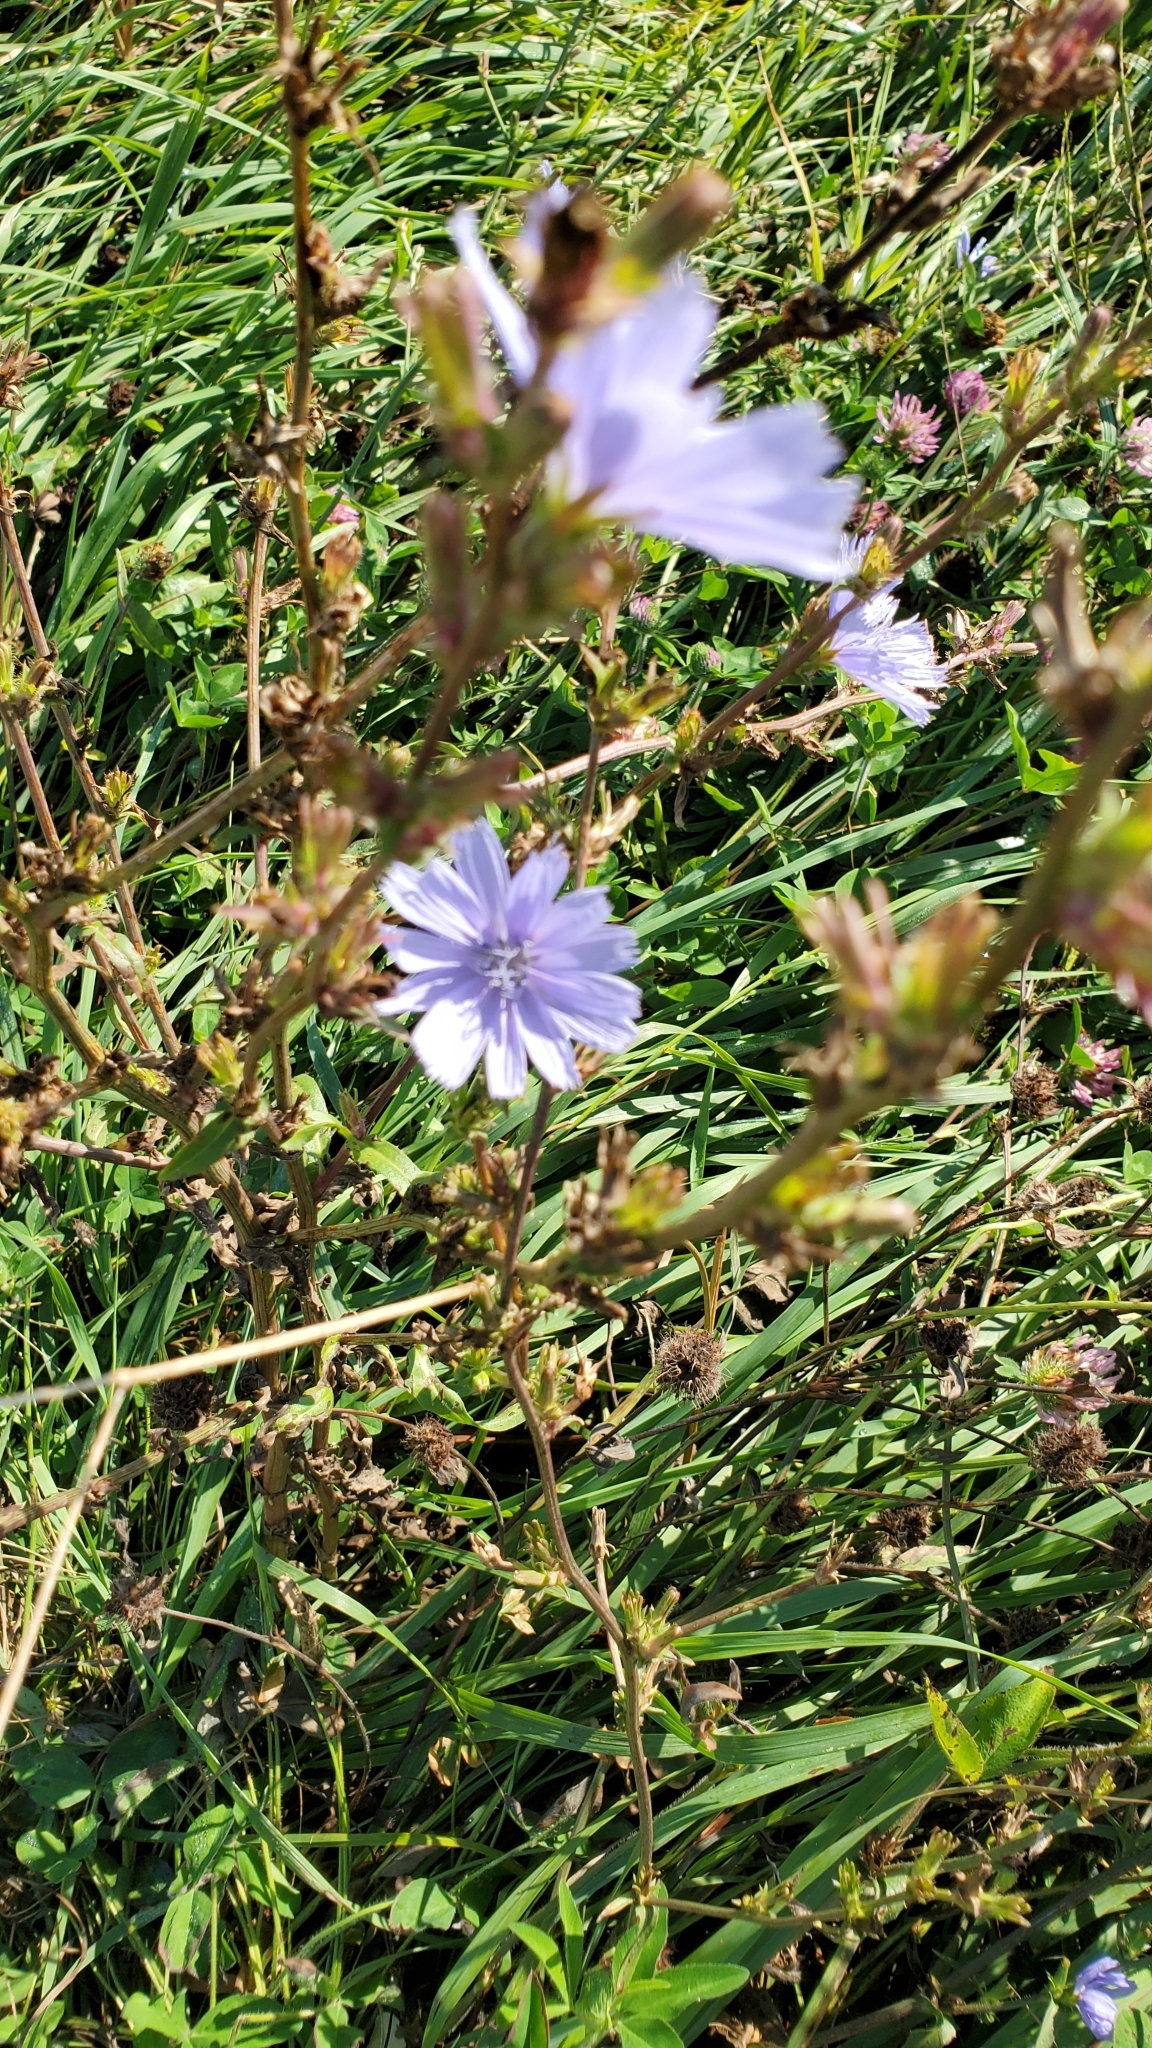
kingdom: Plantae
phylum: Tracheophyta
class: Magnoliopsida
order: Asterales
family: Asteraceae
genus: Cichorium
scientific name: Cichorium intybus
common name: Chicory
